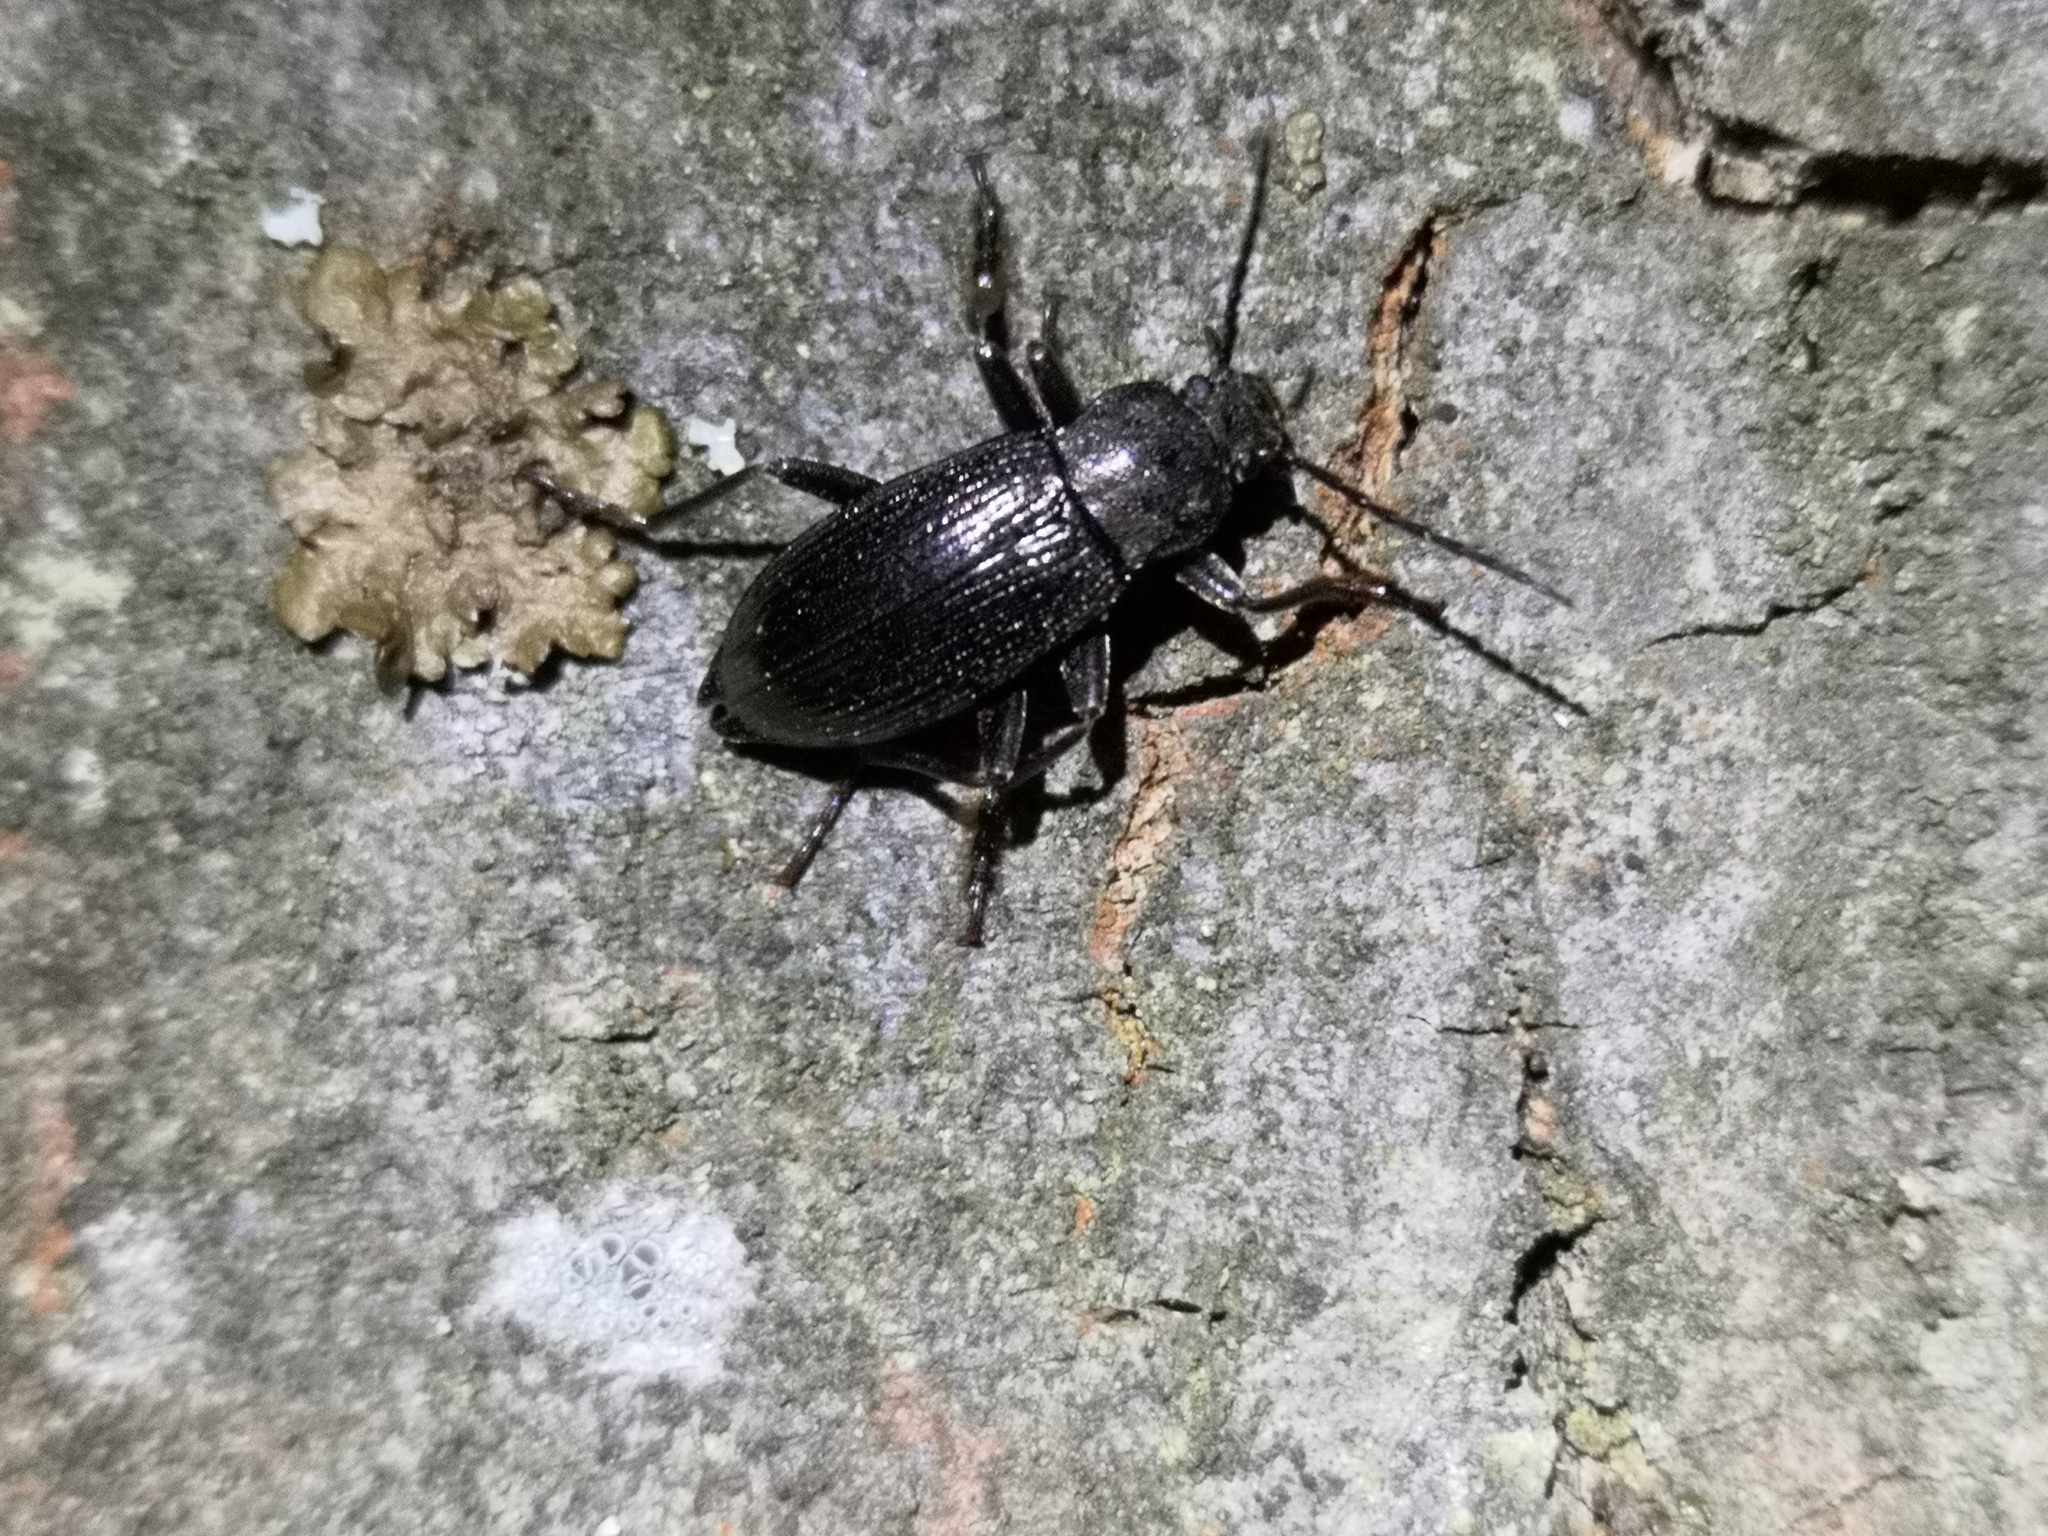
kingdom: Animalia
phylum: Arthropoda
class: Insecta
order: Coleoptera
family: Tenebrionidae
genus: Stenomax
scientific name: Stenomax aeneus
